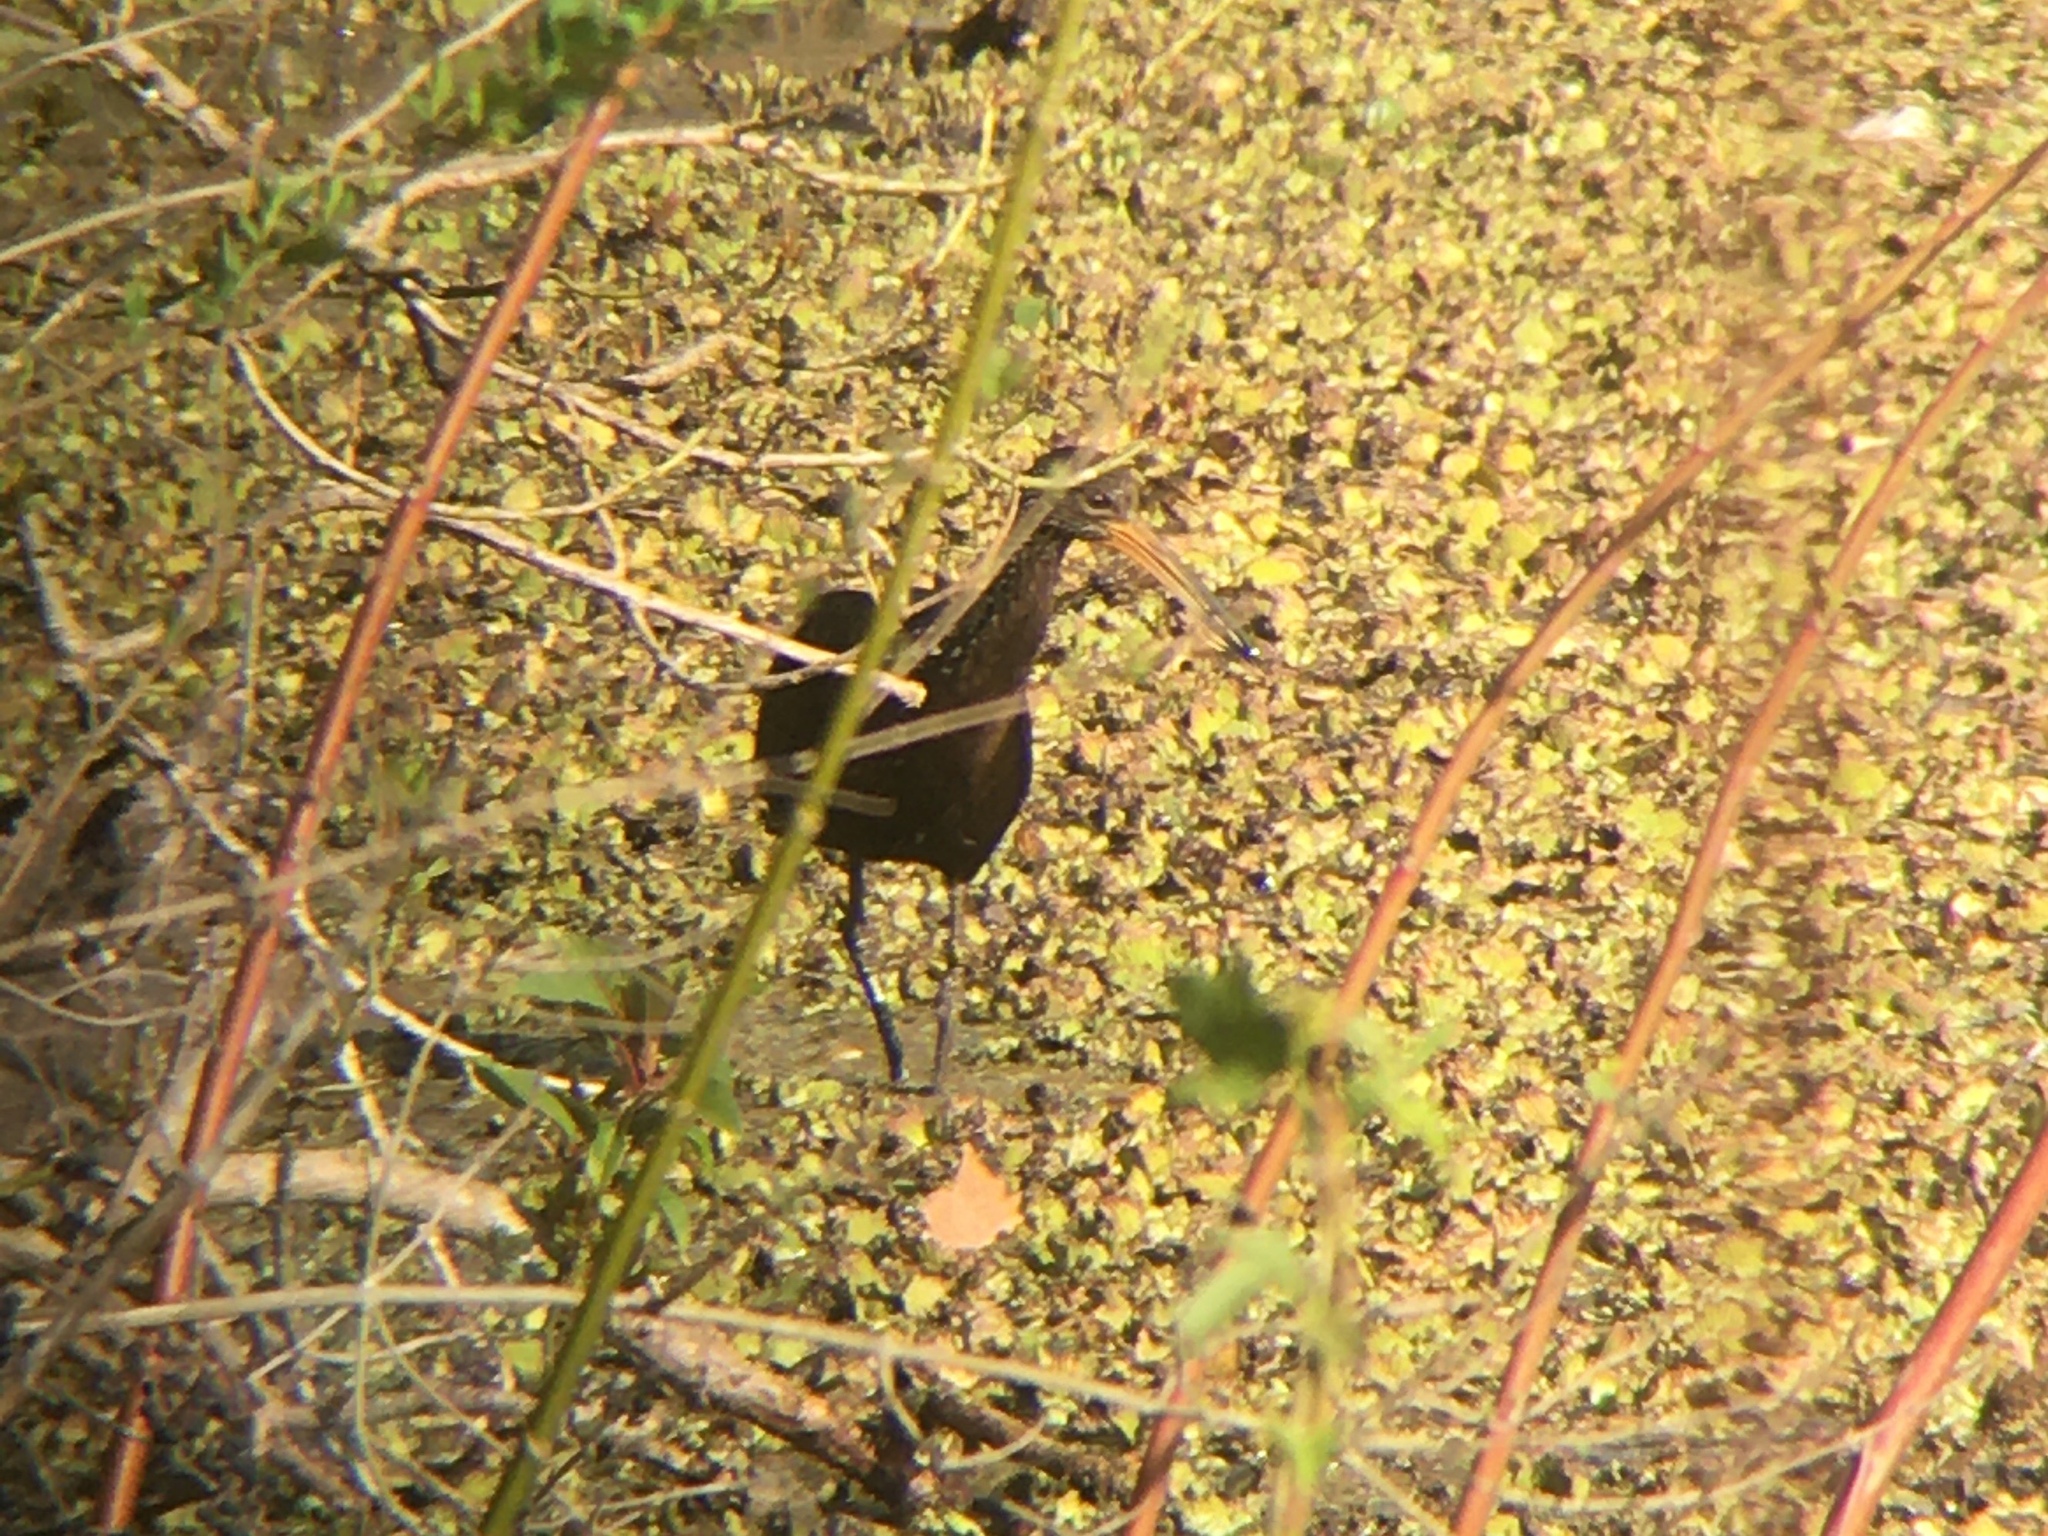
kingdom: Animalia
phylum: Chordata
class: Aves
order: Gruiformes
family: Aramidae
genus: Aramus
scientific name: Aramus guarauna
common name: Limpkin
